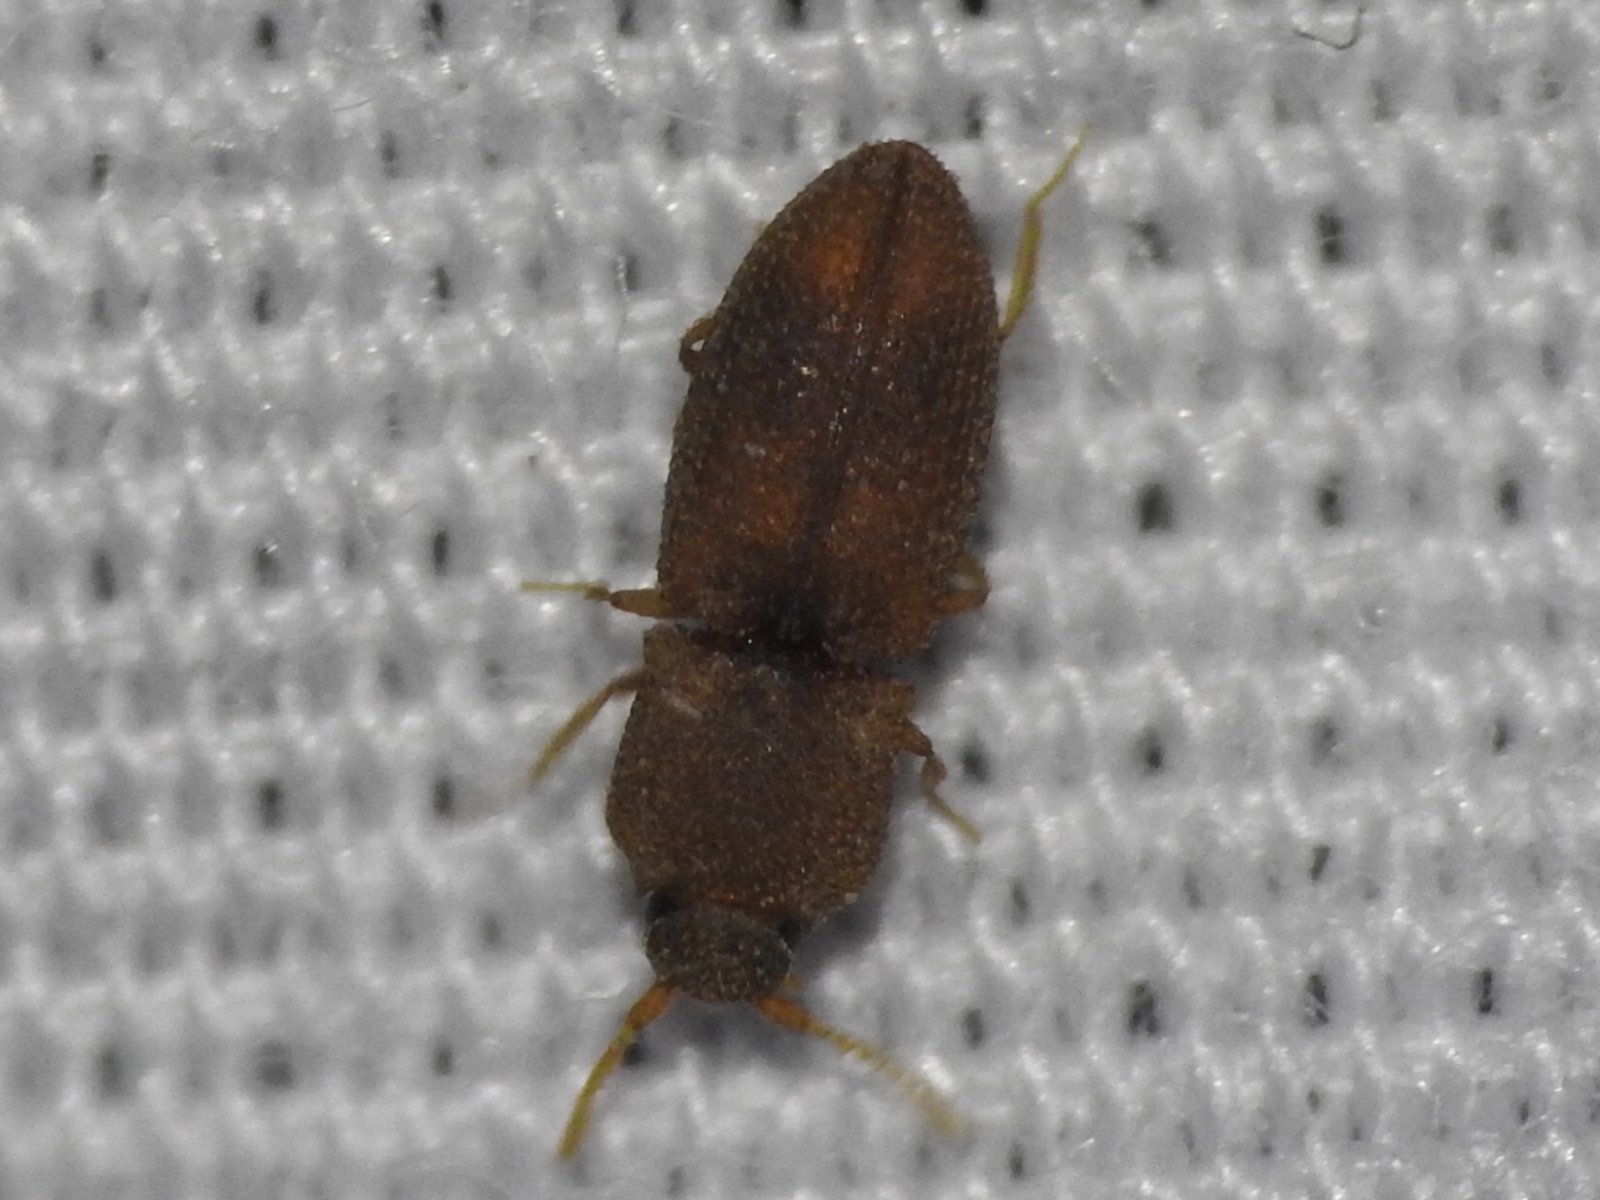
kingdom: Animalia
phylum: Arthropoda
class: Insecta
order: Coleoptera
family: Elateridae
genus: Rismethus
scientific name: Rismethus scobinula
